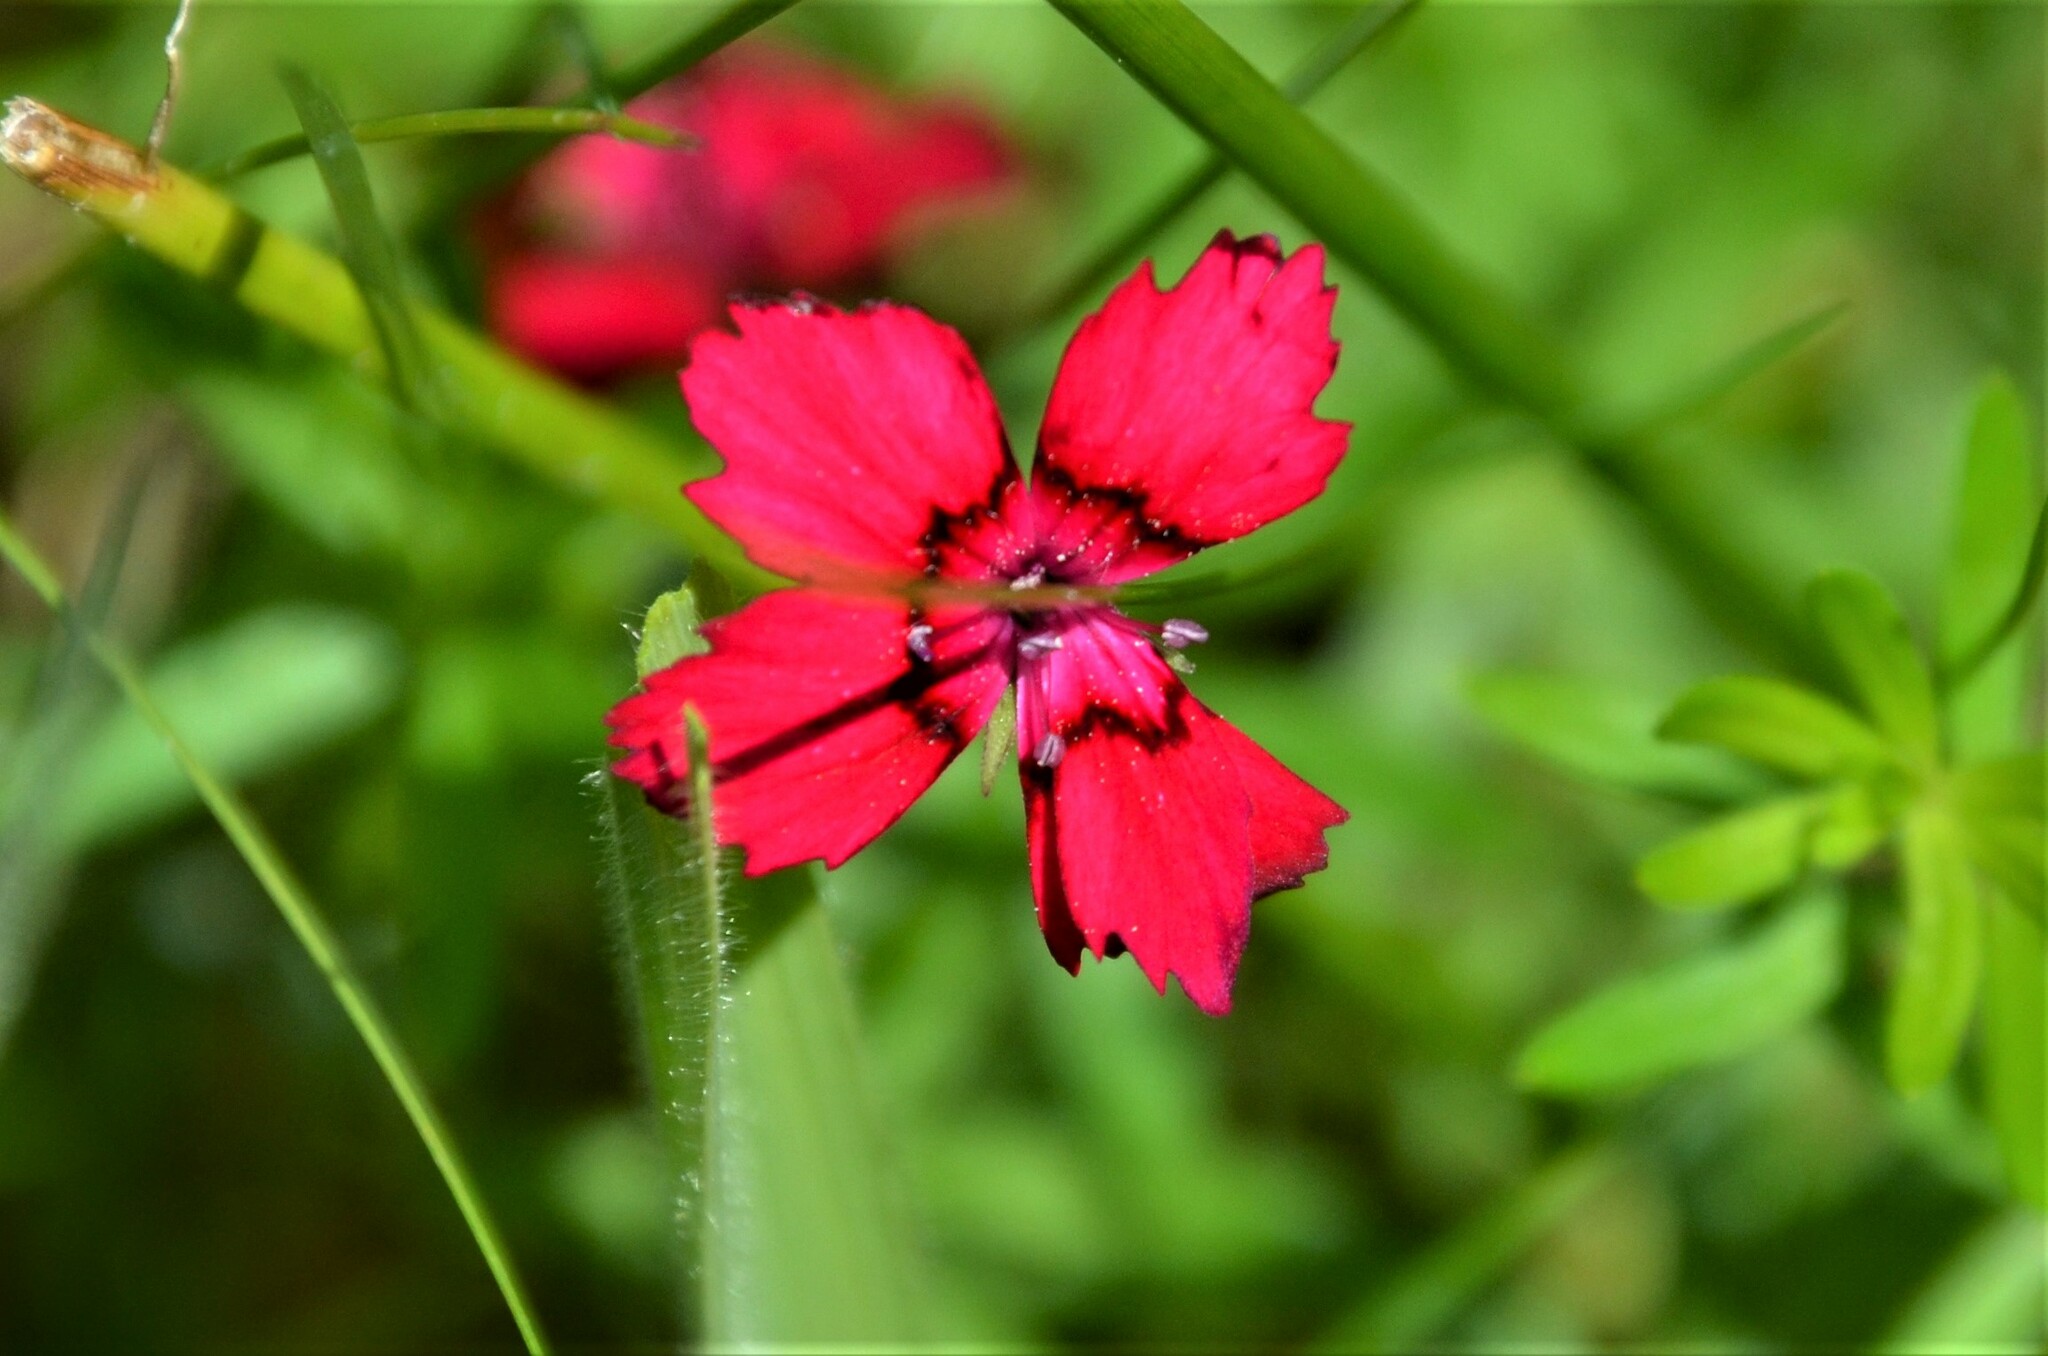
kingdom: Plantae
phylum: Tracheophyta
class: Magnoliopsida
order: Caryophyllales
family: Caryophyllaceae
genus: Dianthus
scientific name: Dianthus deltoides
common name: Maiden pink
